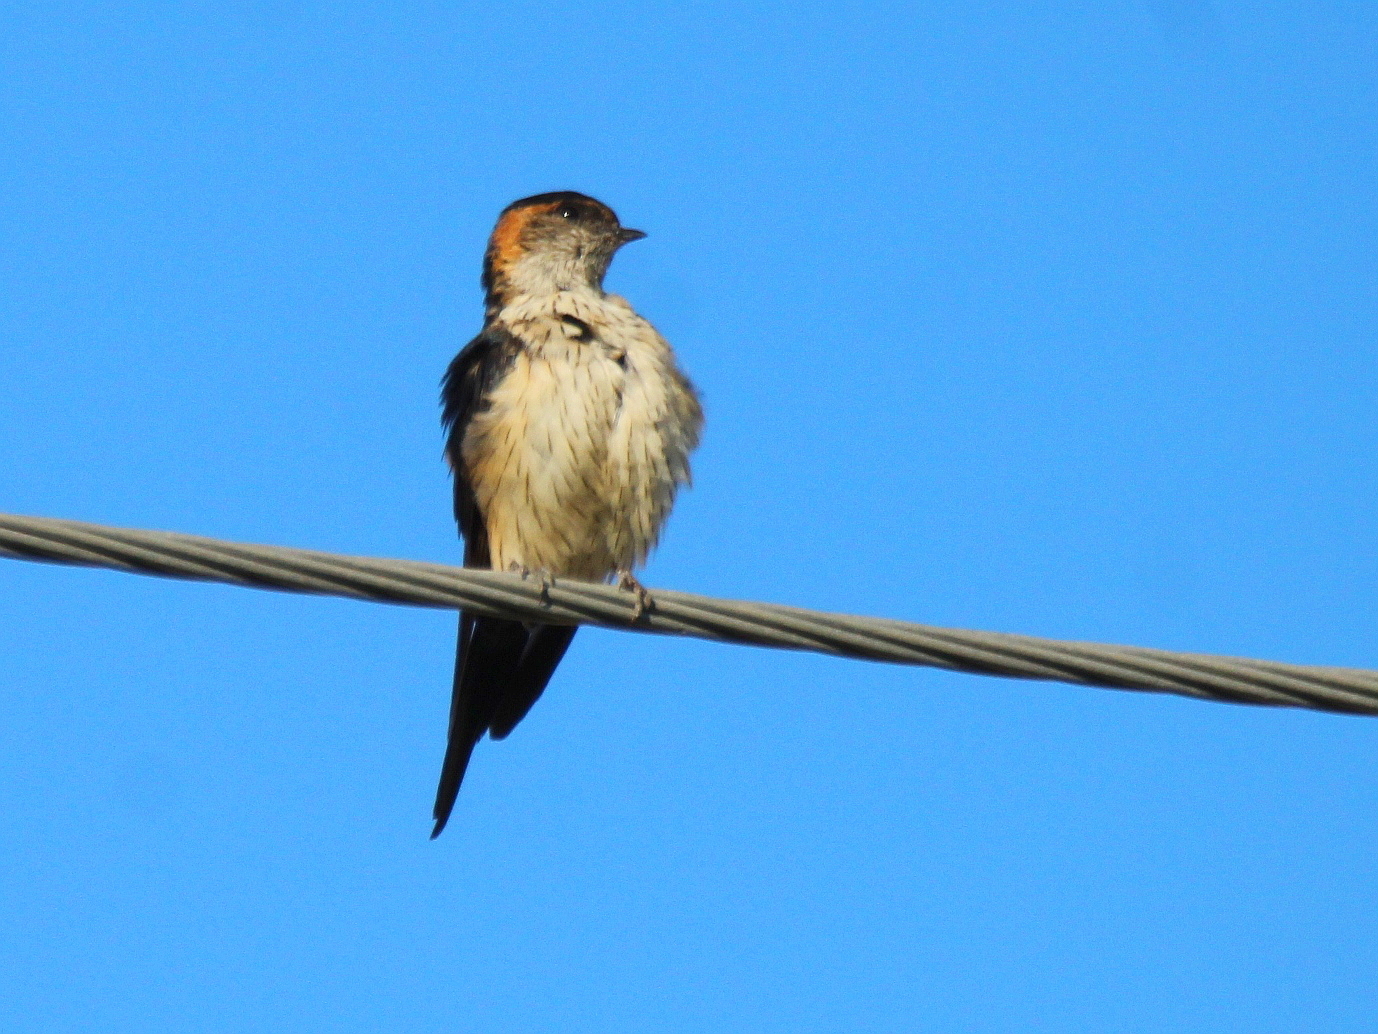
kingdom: Animalia
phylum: Chordata
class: Aves
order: Passeriformes
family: Hirundinidae
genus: Cecropis
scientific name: Cecropis daurica
